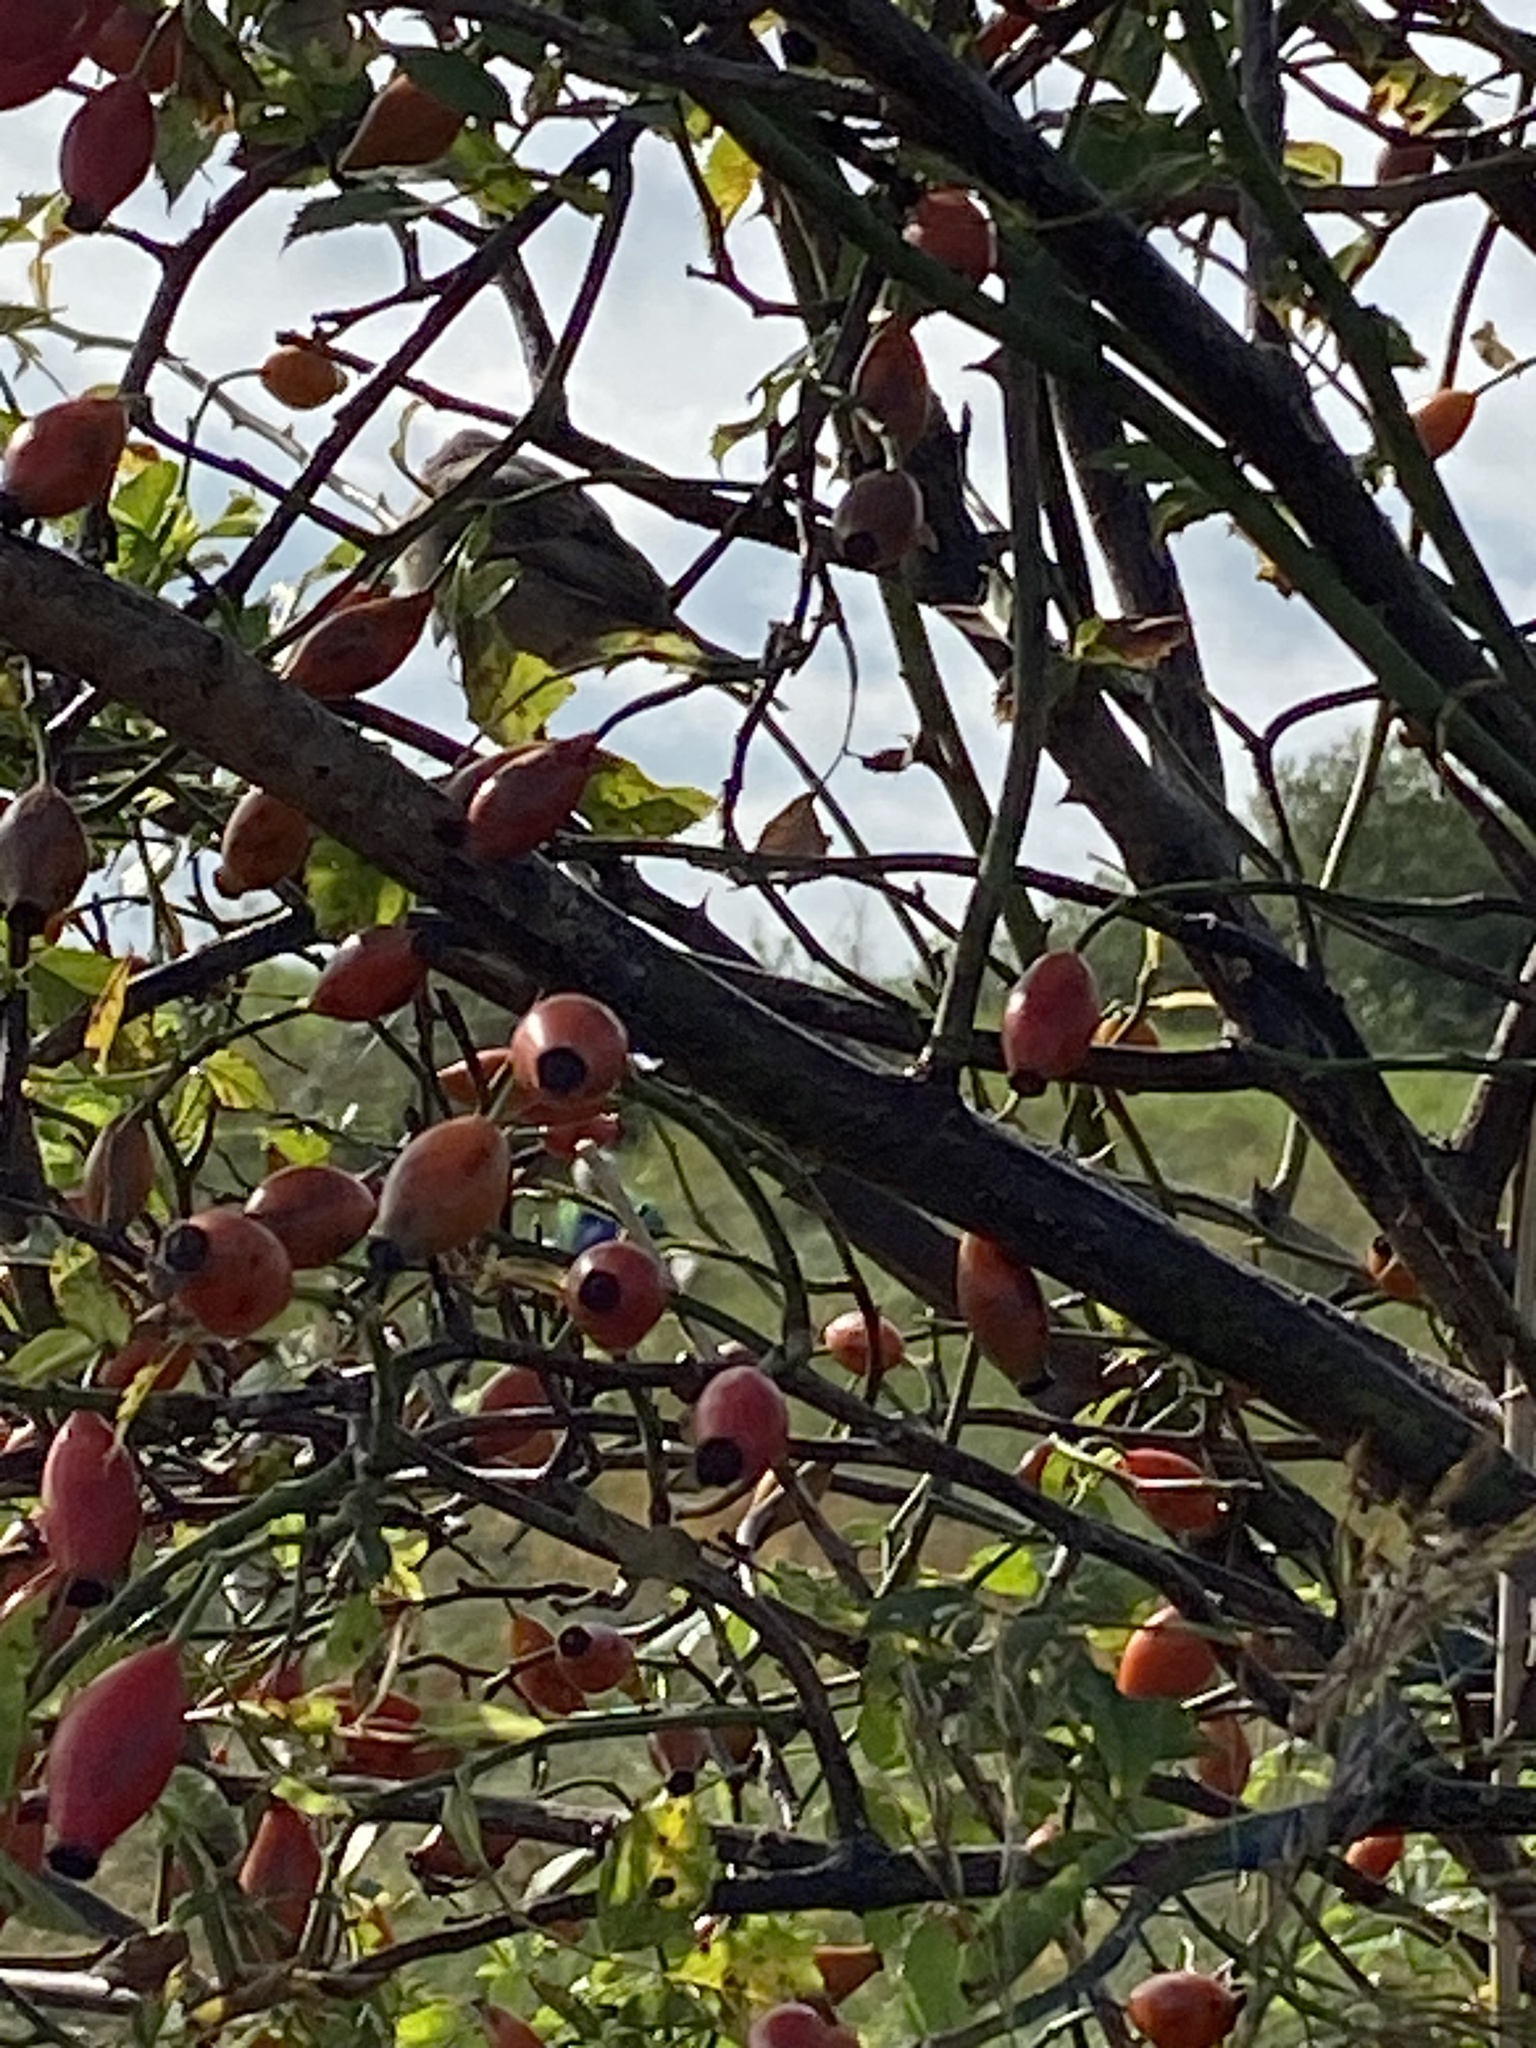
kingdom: Animalia
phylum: Chordata
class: Aves
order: Passeriformes
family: Emberizidae
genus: Emberiza
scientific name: Emberiza schoeniclus
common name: Reed bunting
